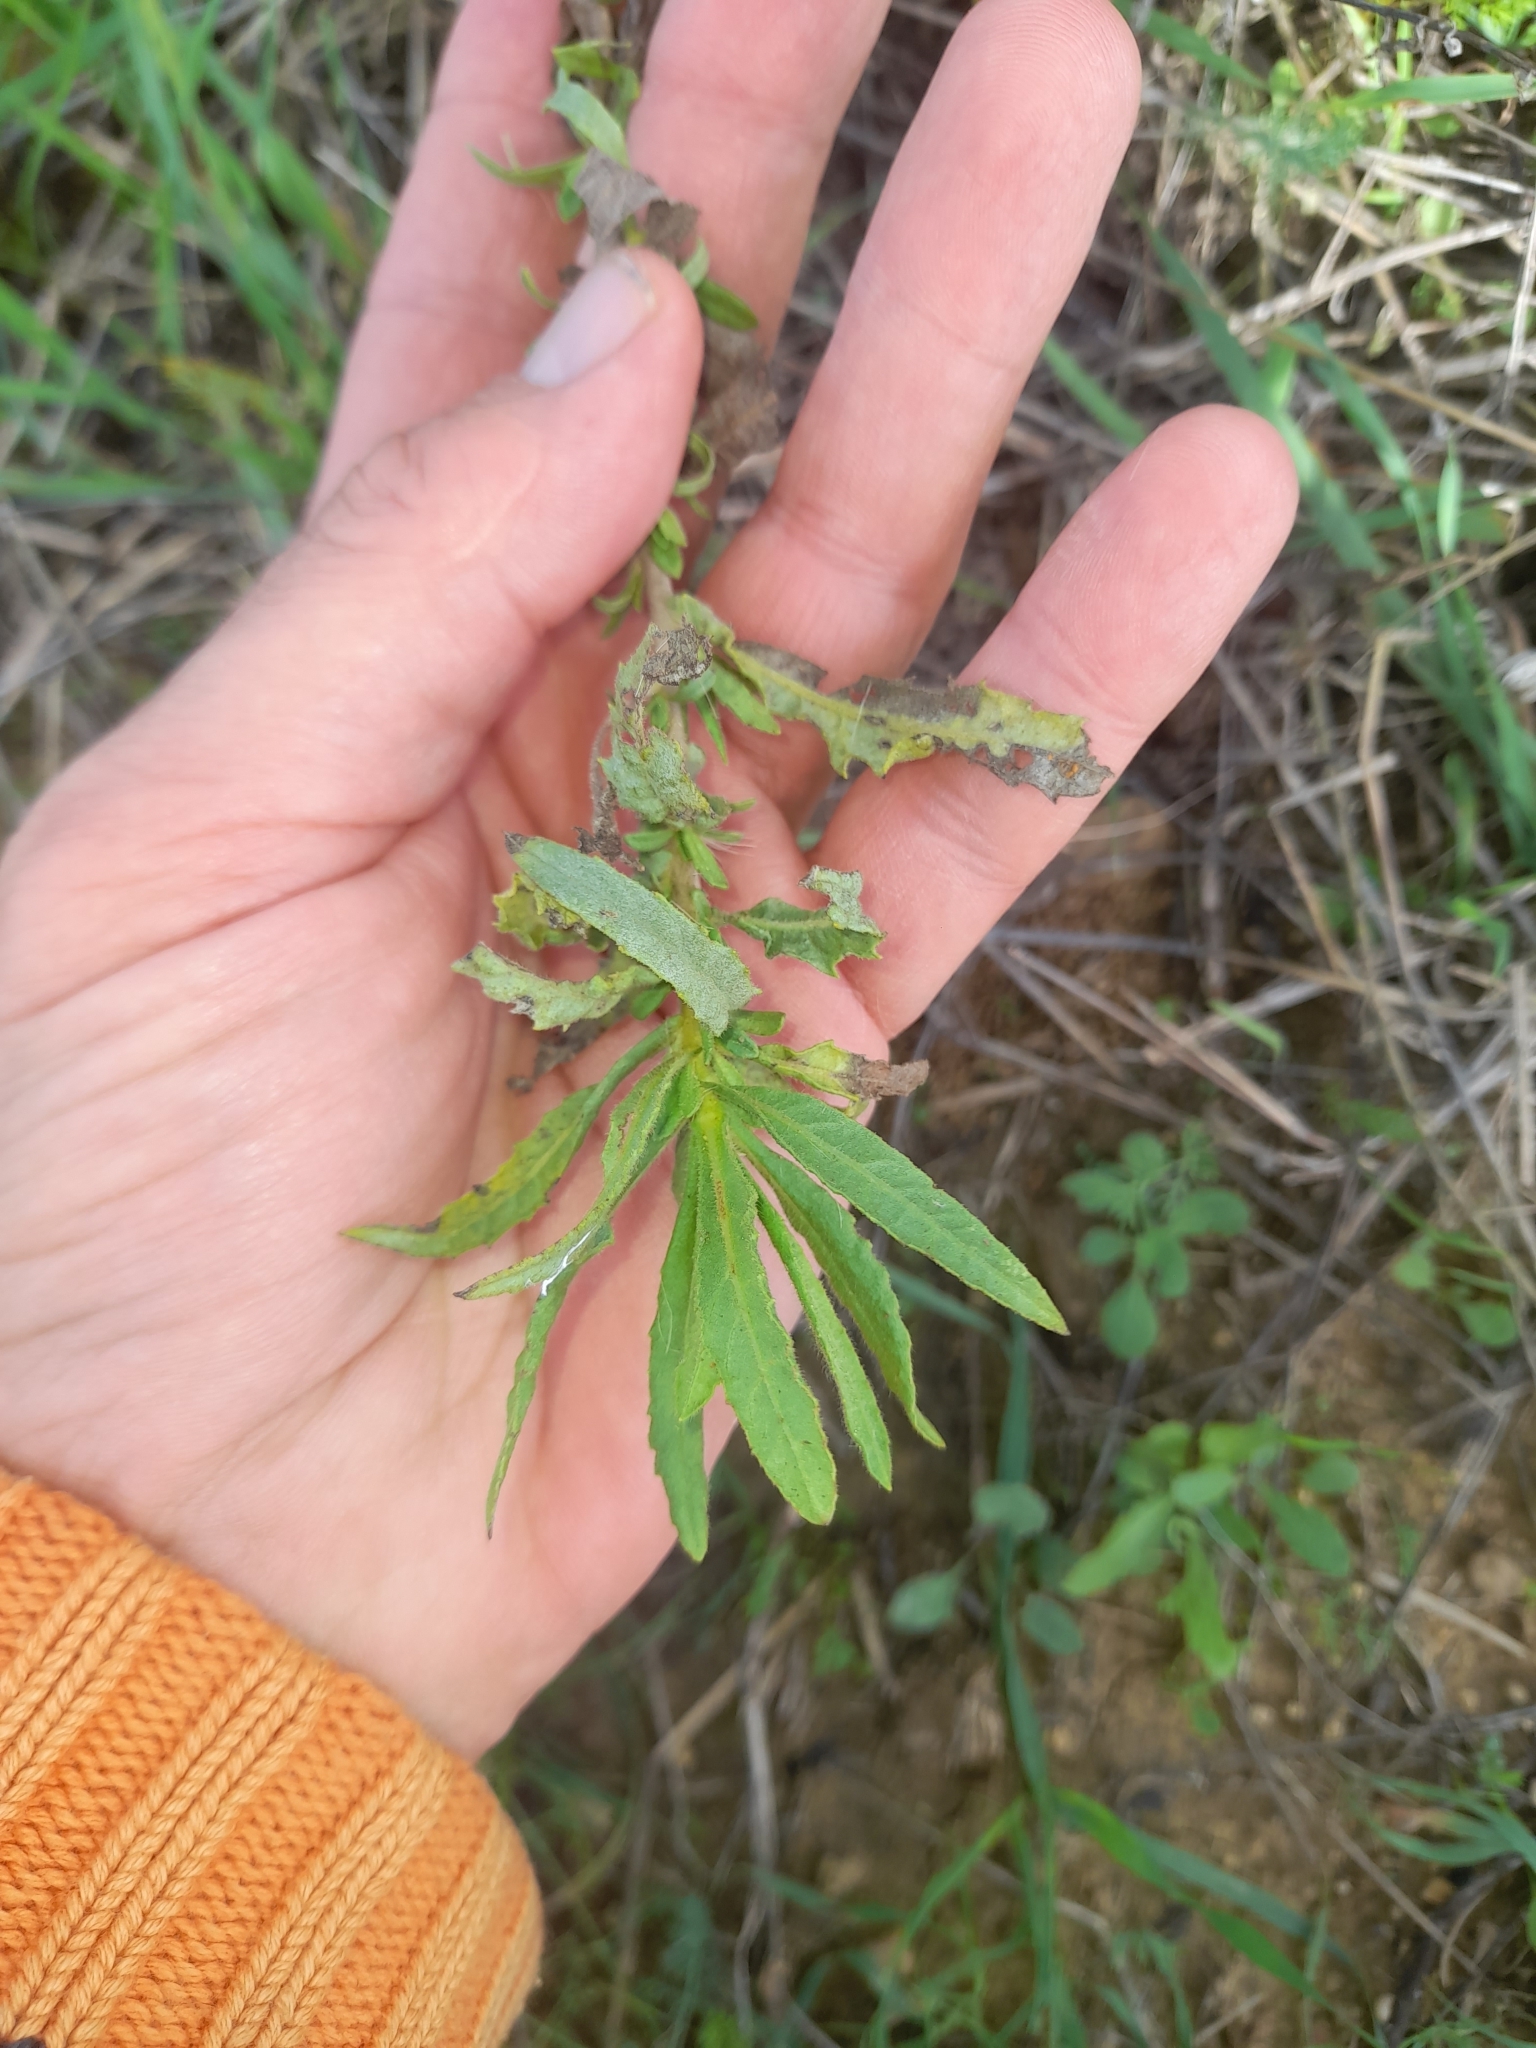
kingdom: Plantae
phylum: Tracheophyta
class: Magnoliopsida
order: Asterales
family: Asteraceae
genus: Dittrichia
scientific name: Dittrichia viscosa
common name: Woody fleabane
